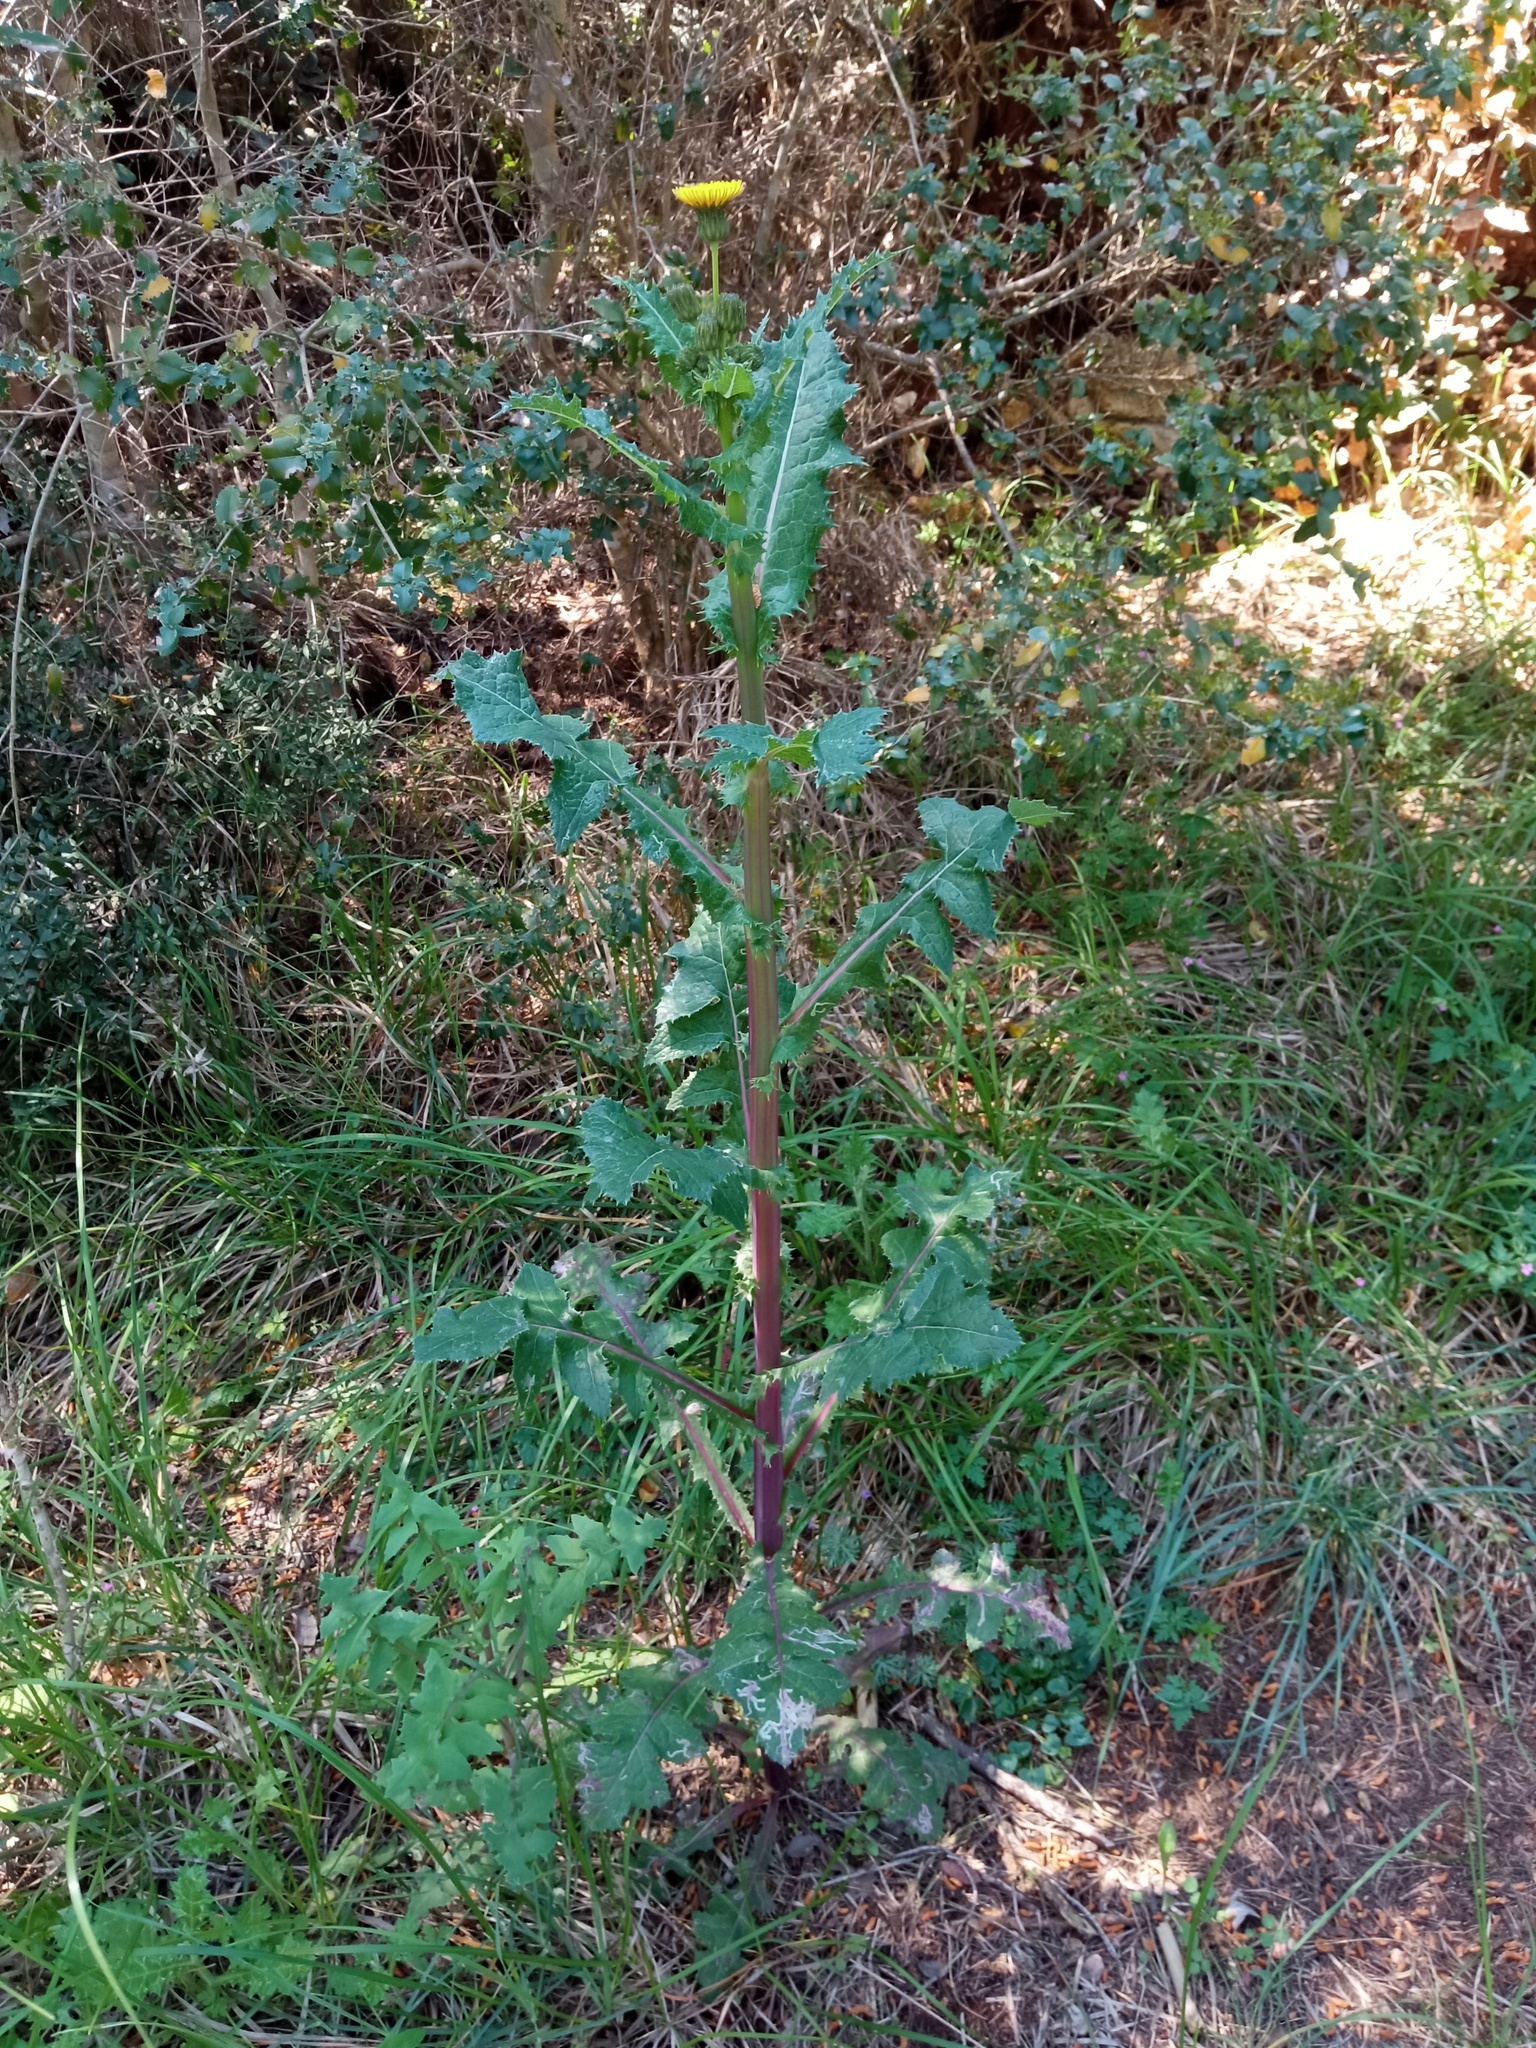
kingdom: Plantae
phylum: Tracheophyta
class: Magnoliopsida
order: Asterales
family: Asteraceae
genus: Sonchus
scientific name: Sonchus oleraceus
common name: Common sowthistle
